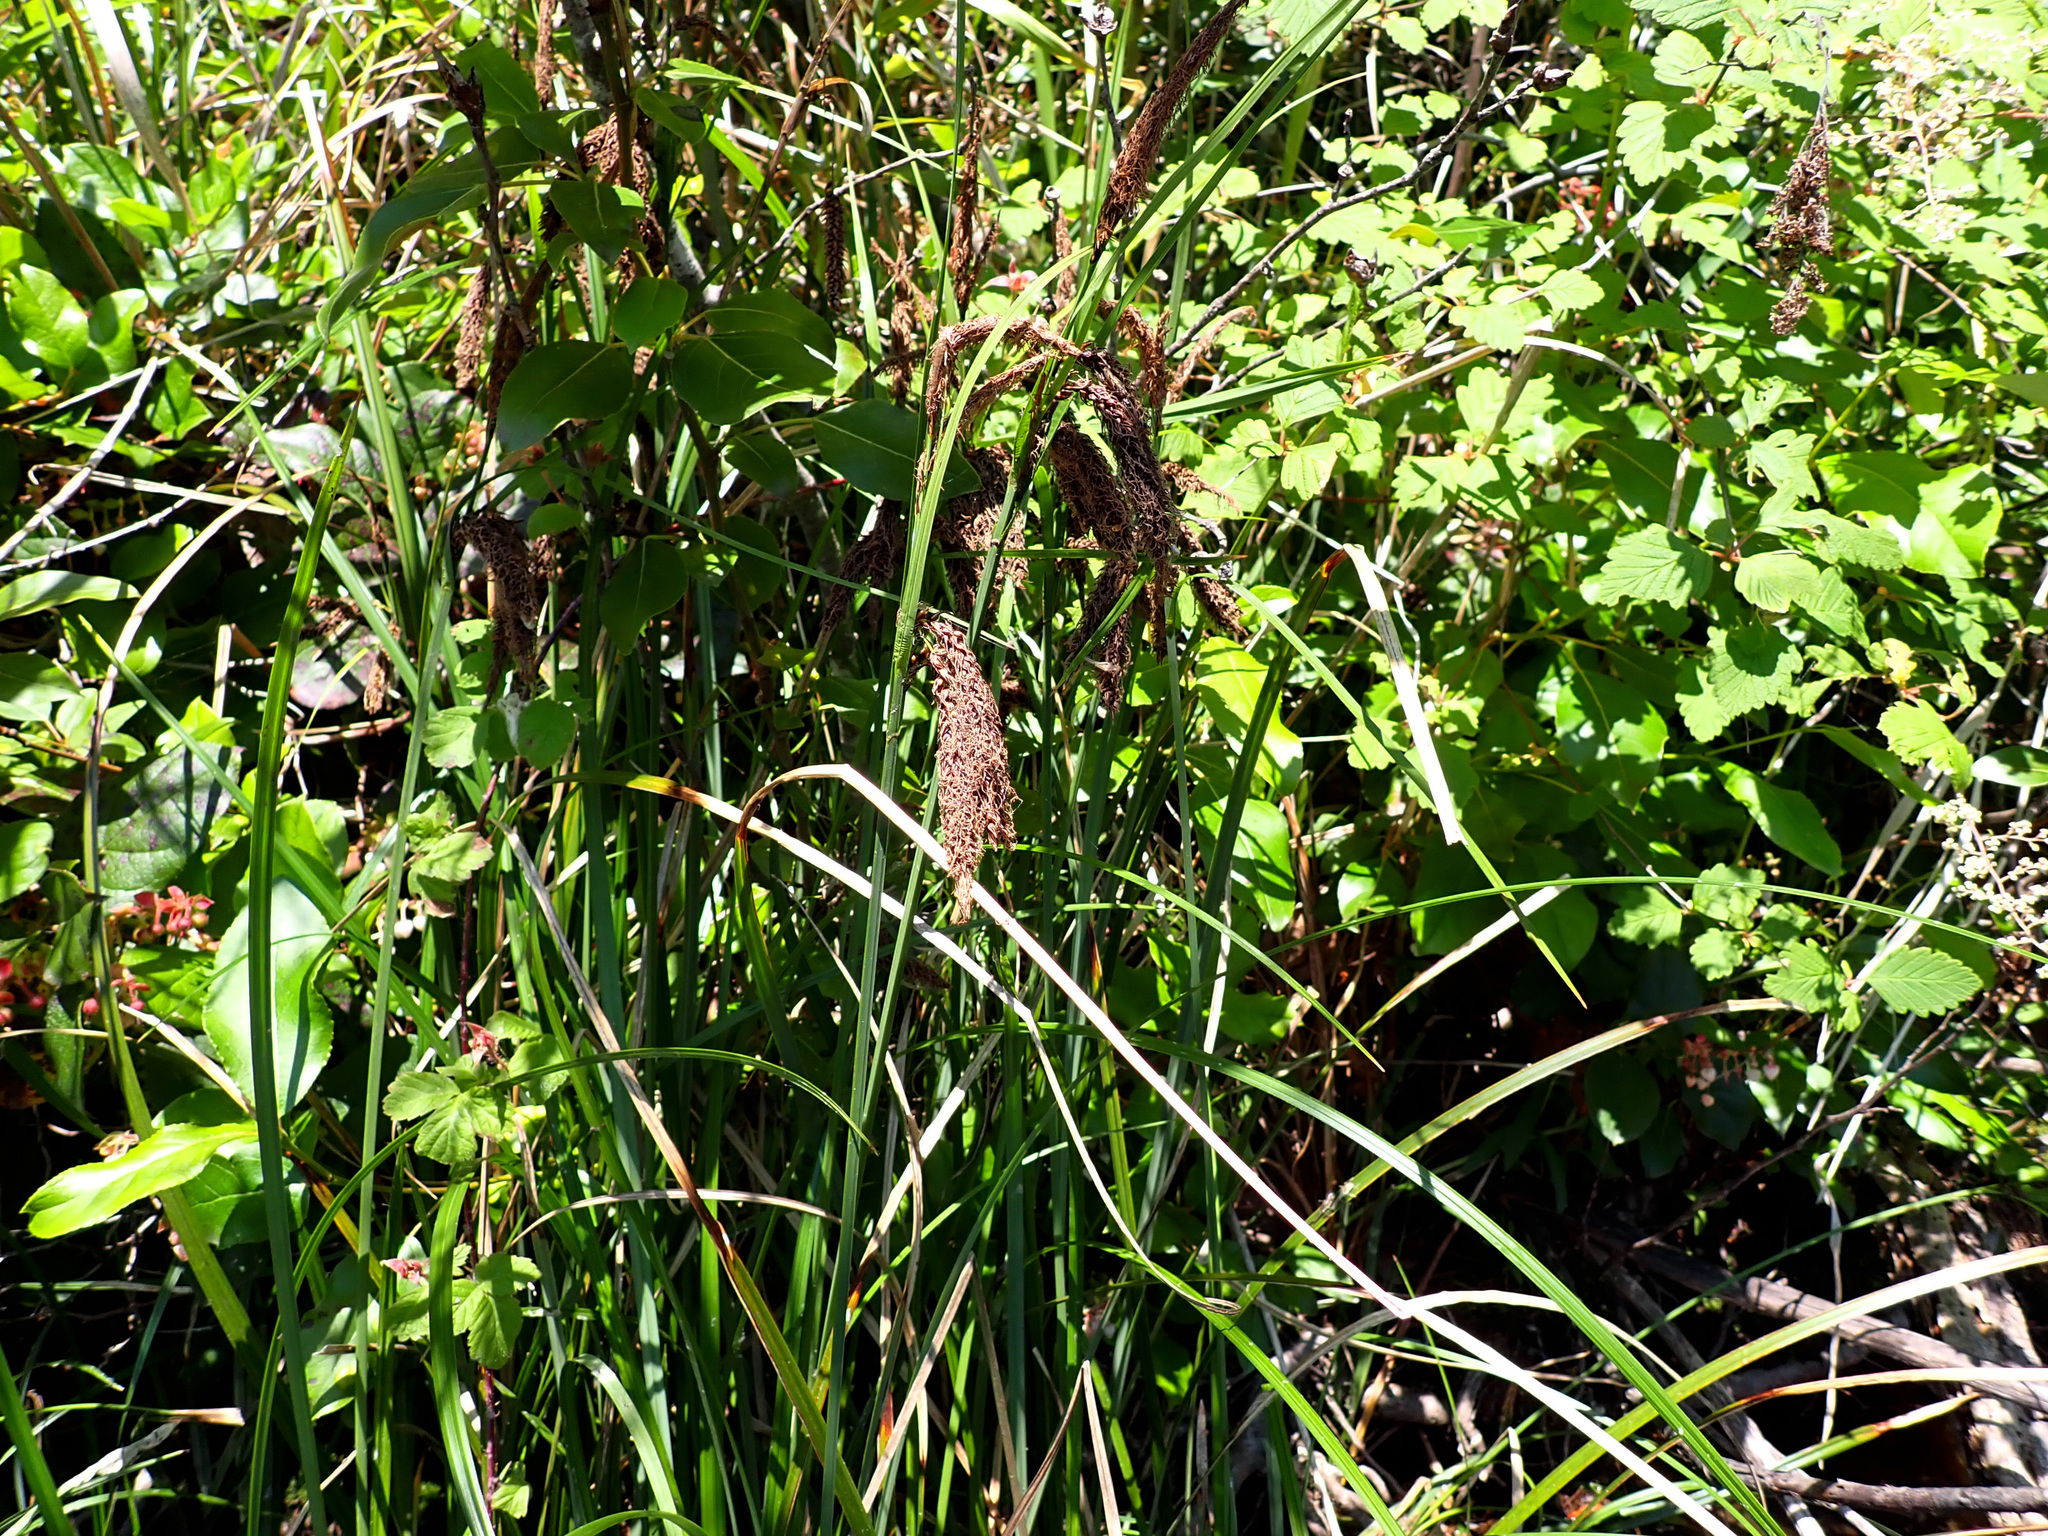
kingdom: Plantae
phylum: Tracheophyta
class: Liliopsida
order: Poales
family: Cyperaceae
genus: Carex
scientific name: Carex obnupta
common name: Slough sedge
